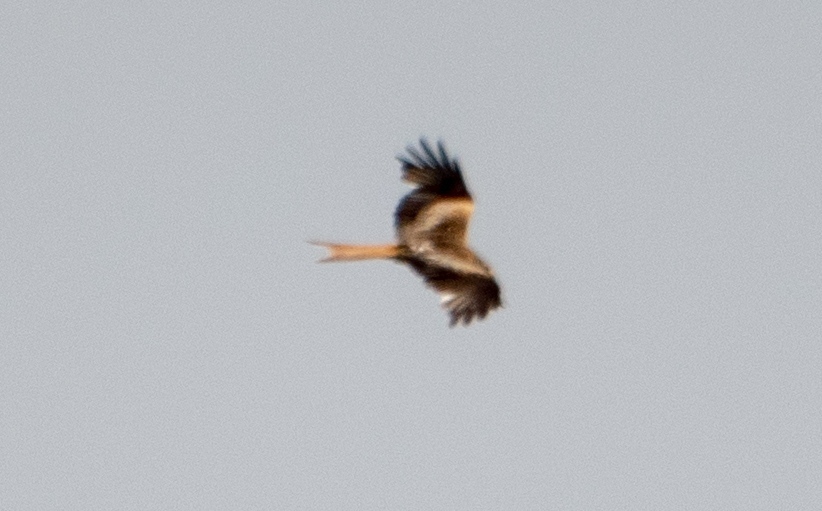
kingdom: Animalia
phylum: Chordata
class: Aves
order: Accipitriformes
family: Accipitridae
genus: Milvus
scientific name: Milvus milvus
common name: Red kite
